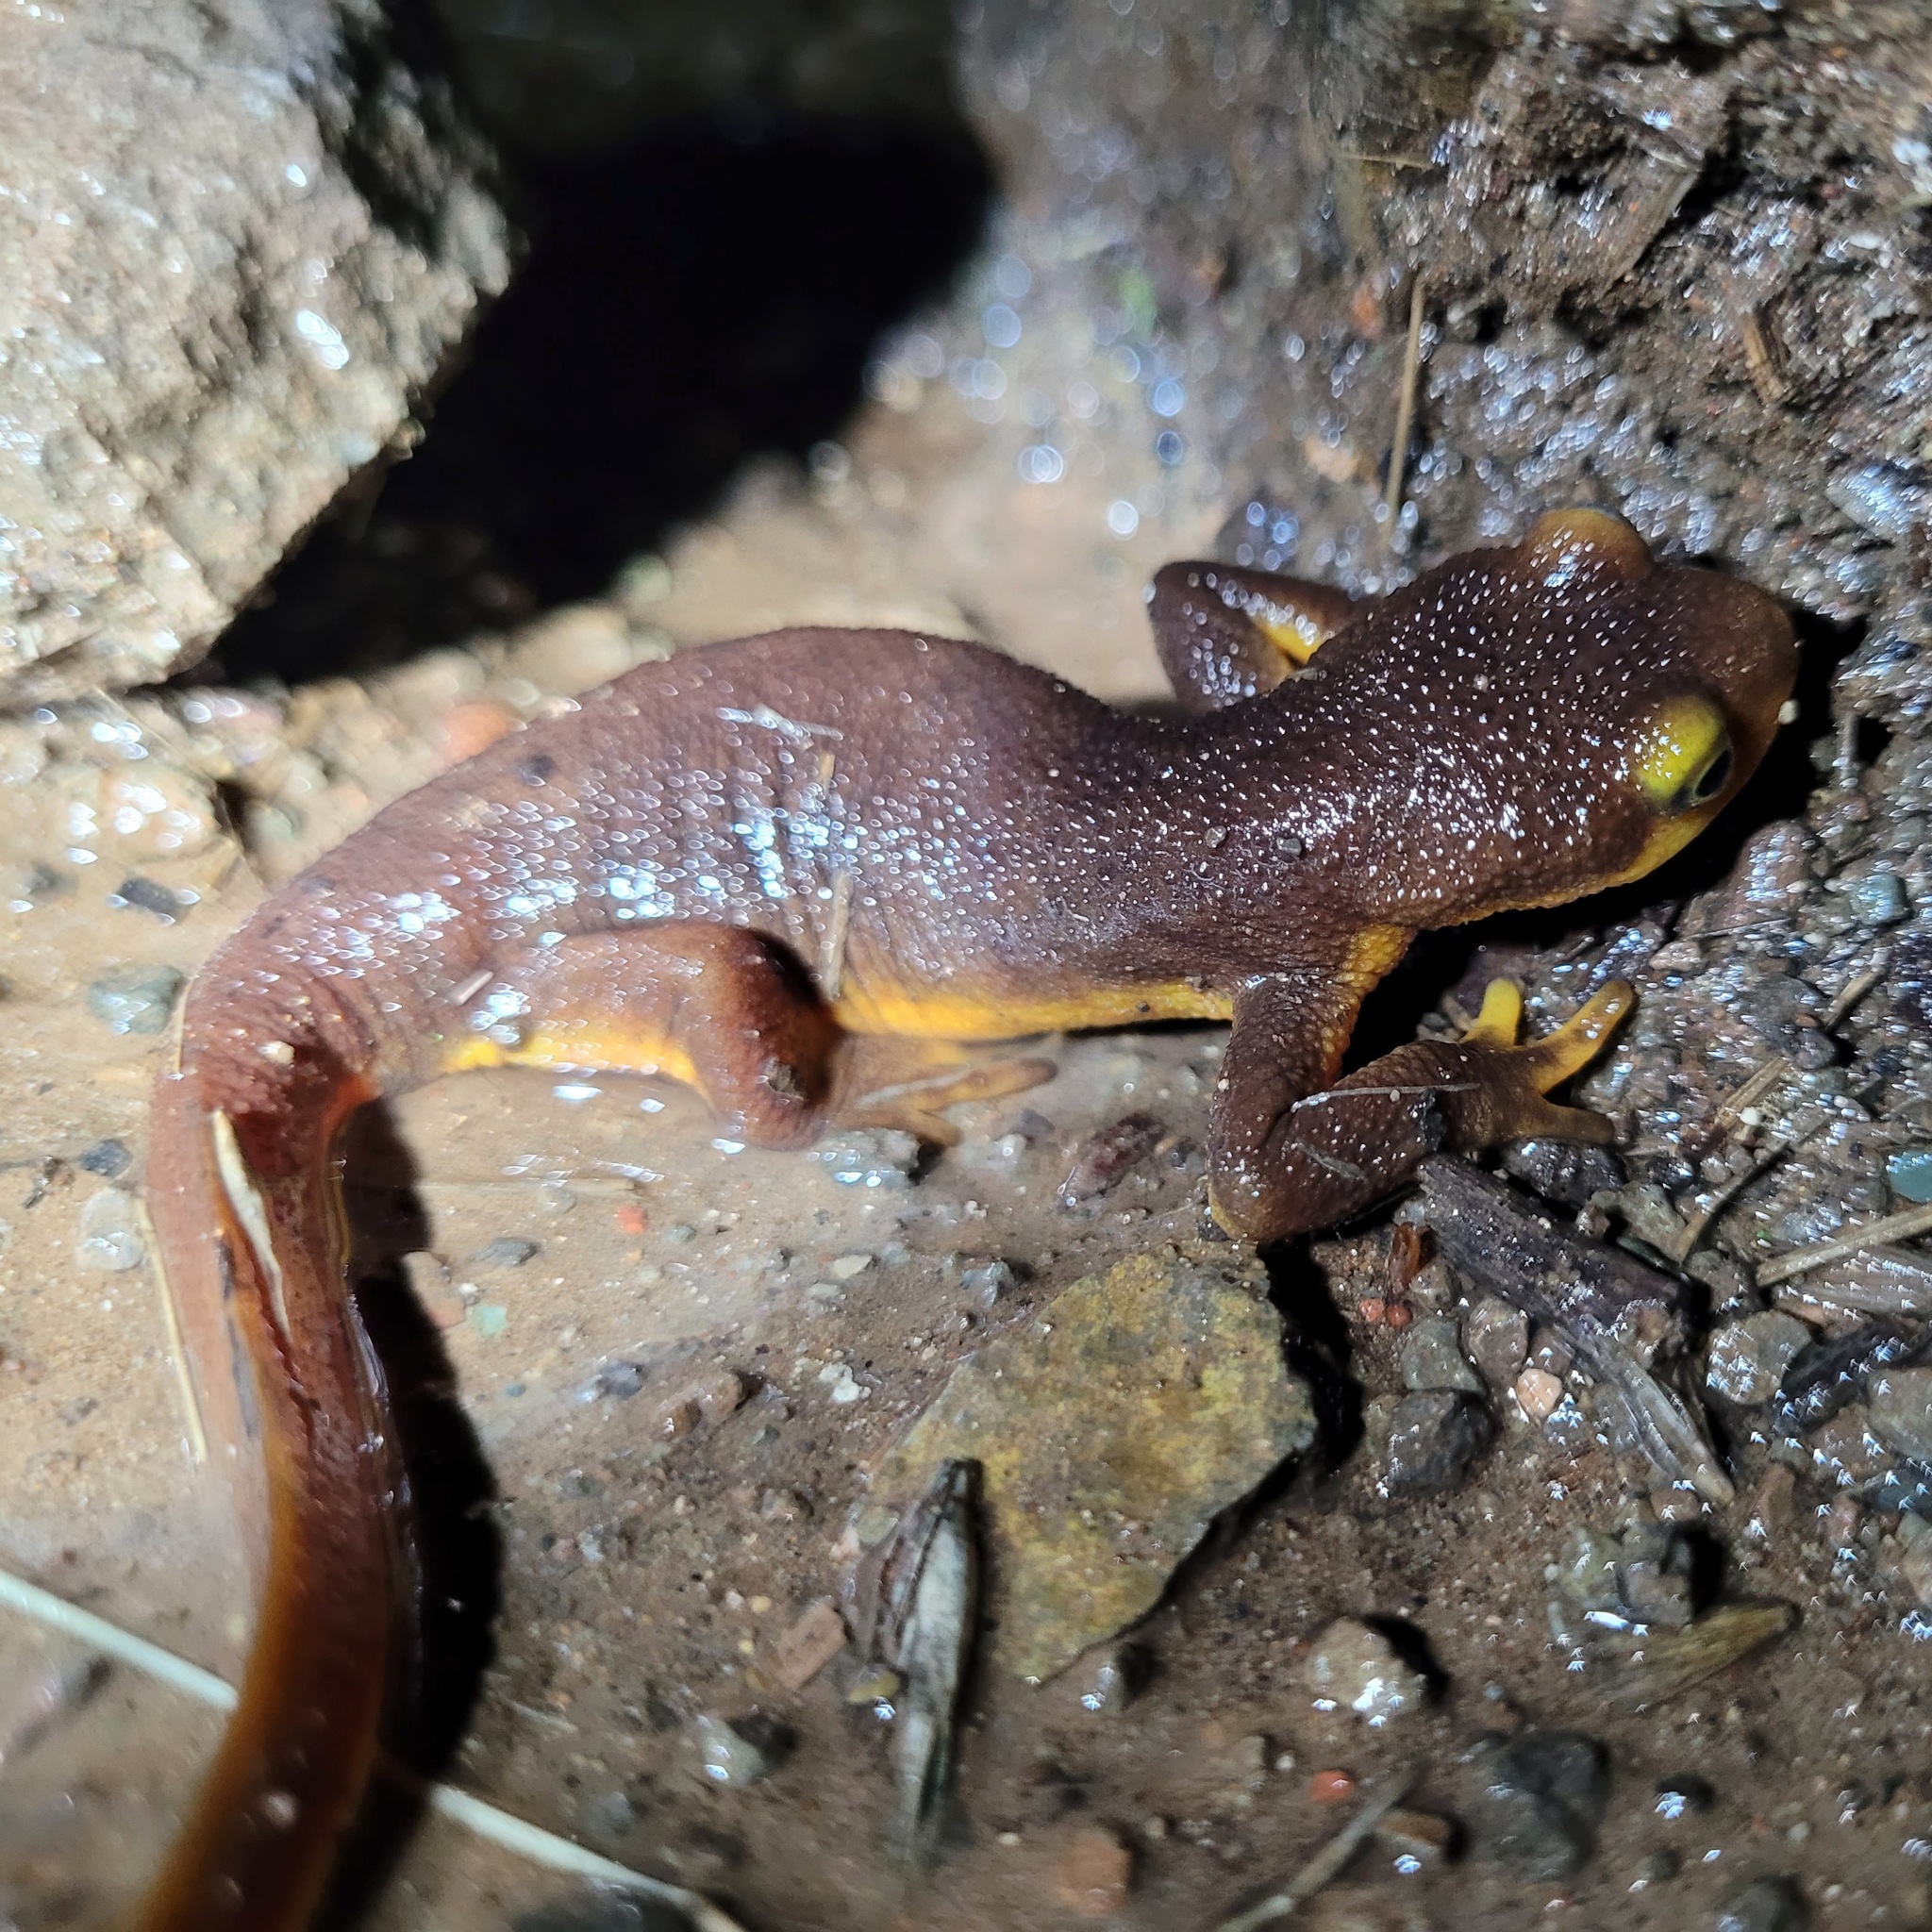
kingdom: Animalia
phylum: Chordata
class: Amphibia
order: Caudata
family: Salamandridae
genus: Taricha
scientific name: Taricha torosa
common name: California newt
